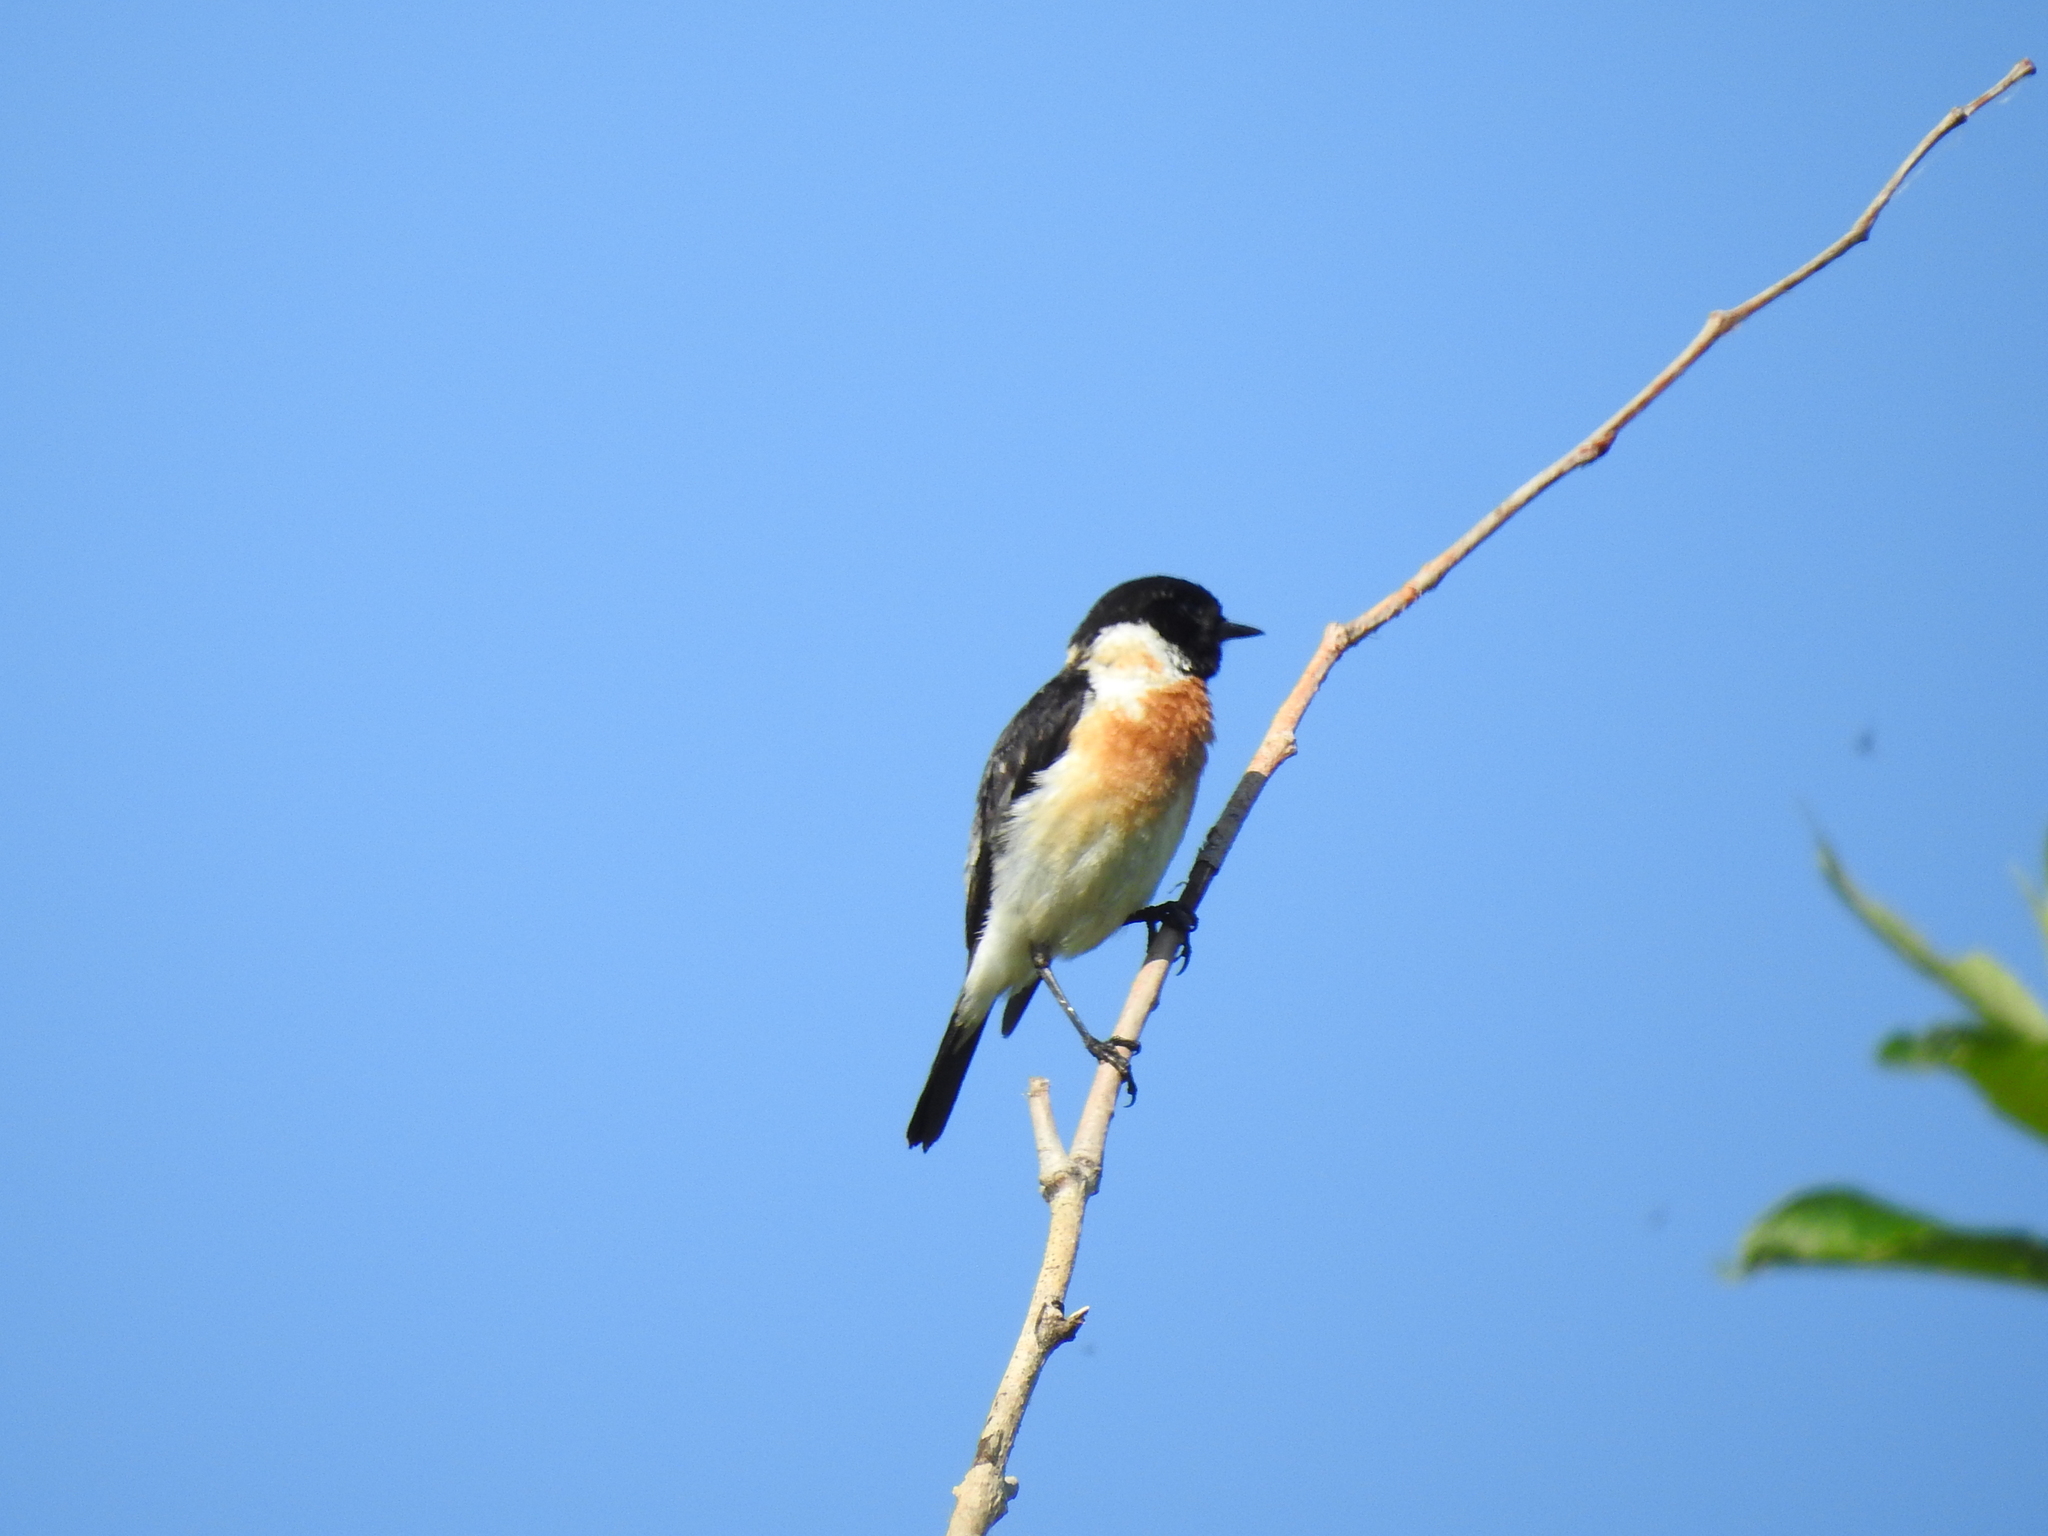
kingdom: Animalia
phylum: Chordata
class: Aves
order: Passeriformes
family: Muscicapidae
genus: Saxicola
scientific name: Saxicola maurus
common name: Siberian stonechat
